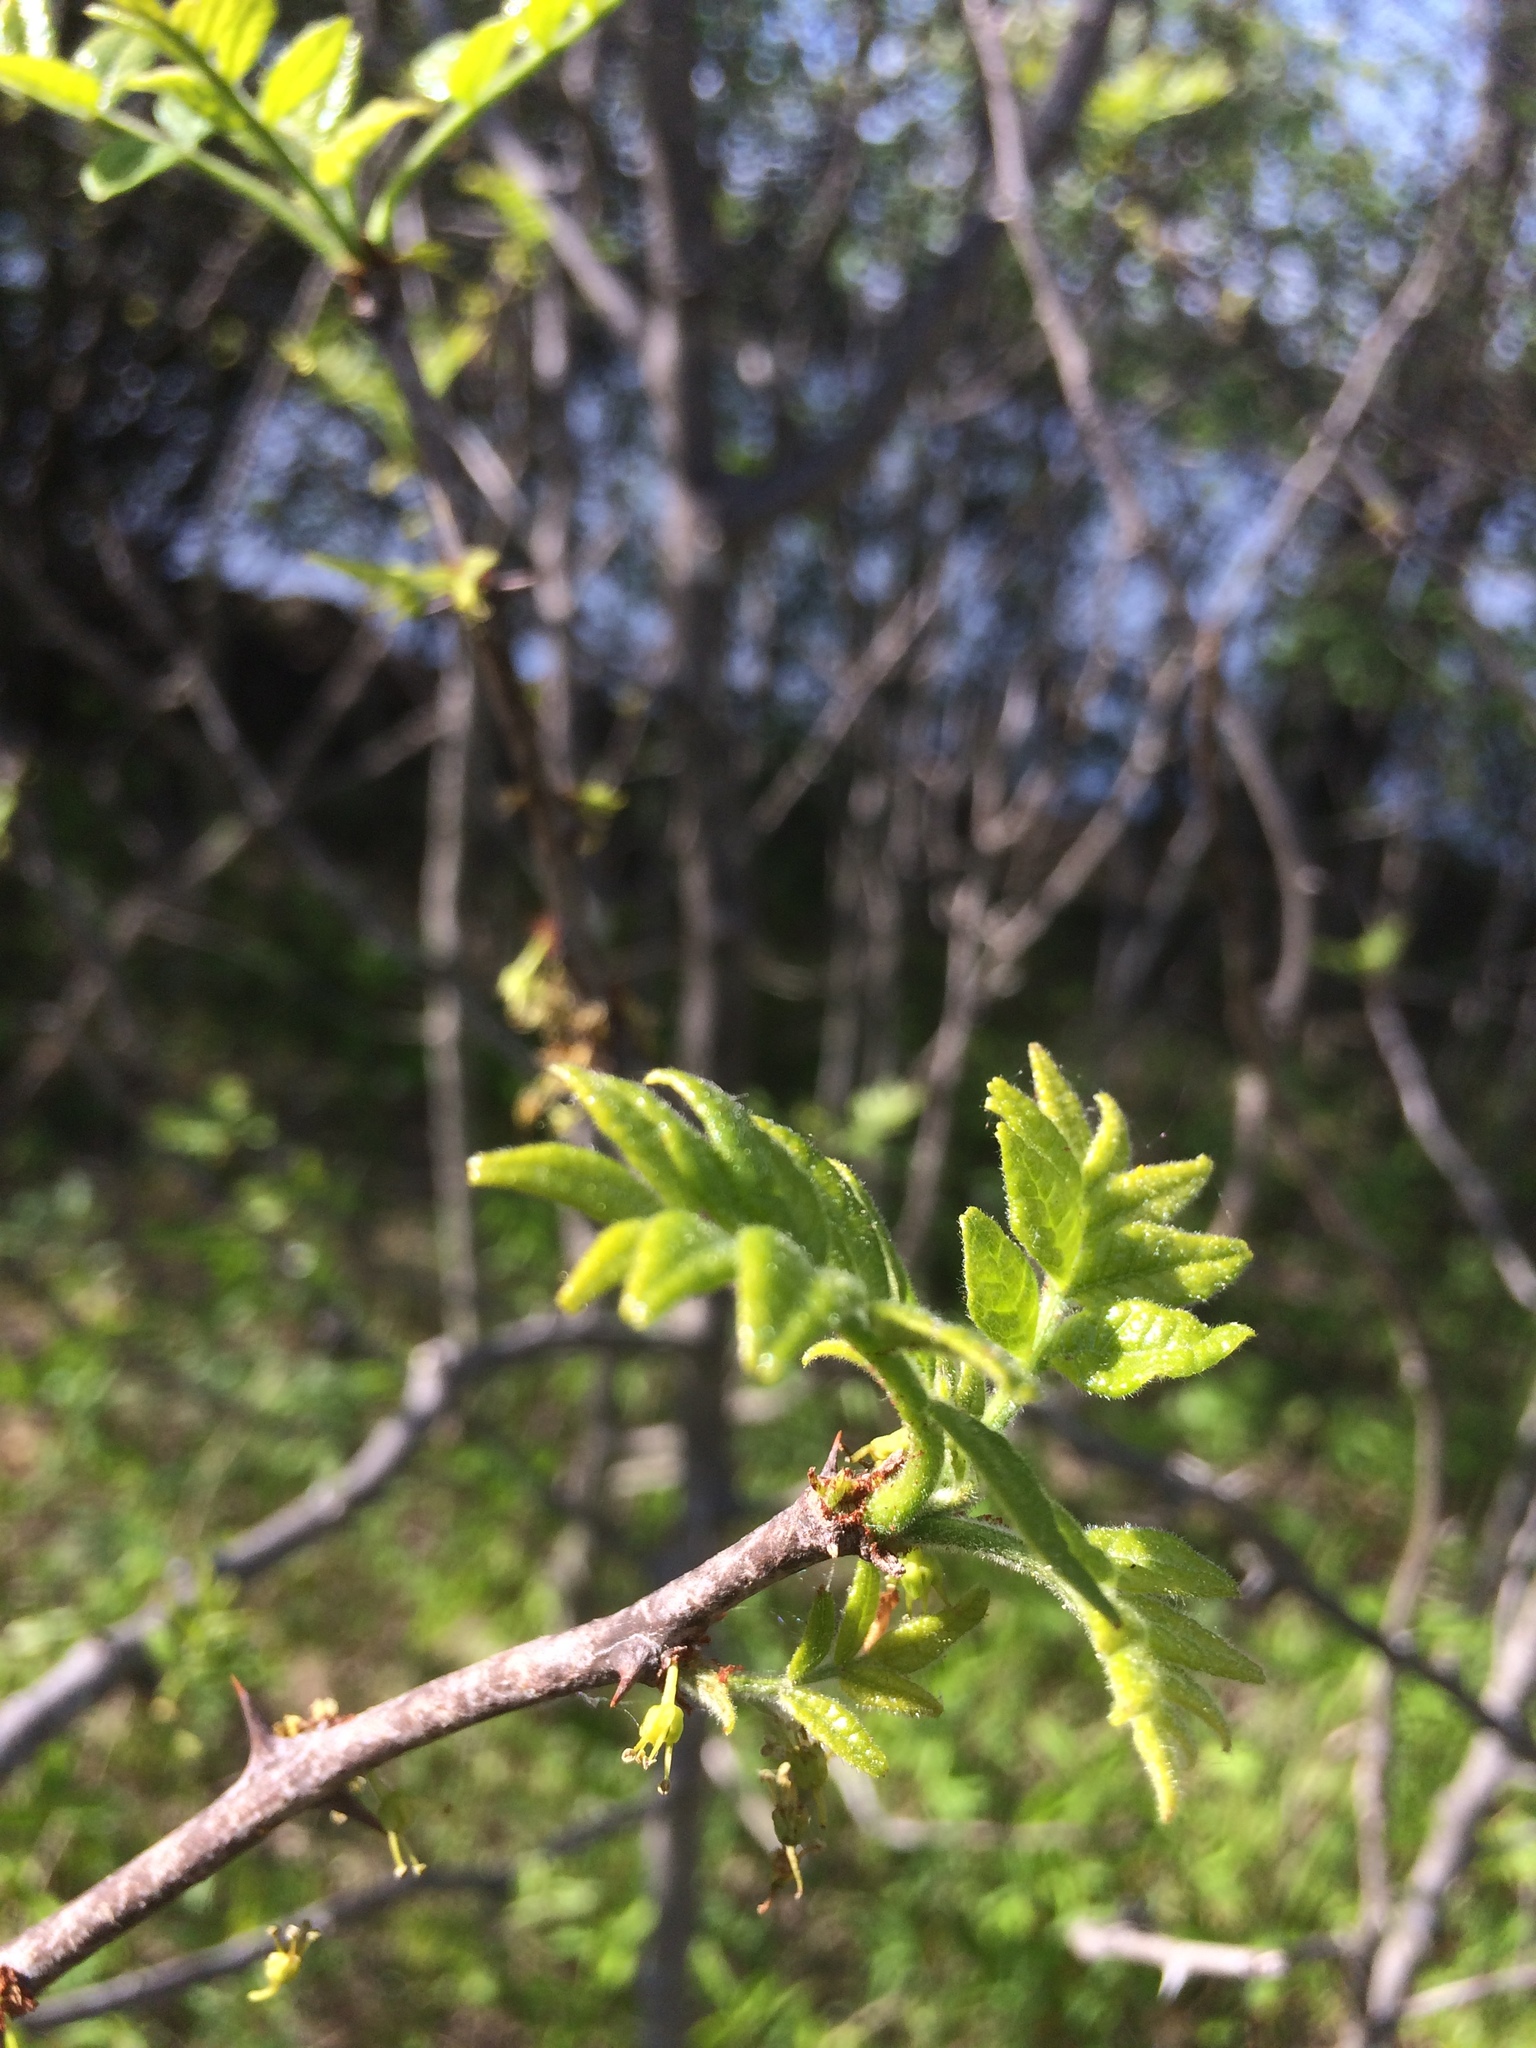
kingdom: Plantae
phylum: Tracheophyta
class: Magnoliopsida
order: Sapindales
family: Rutaceae
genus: Zanthoxylum
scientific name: Zanthoxylum americanum
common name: Northern prickly-ash
